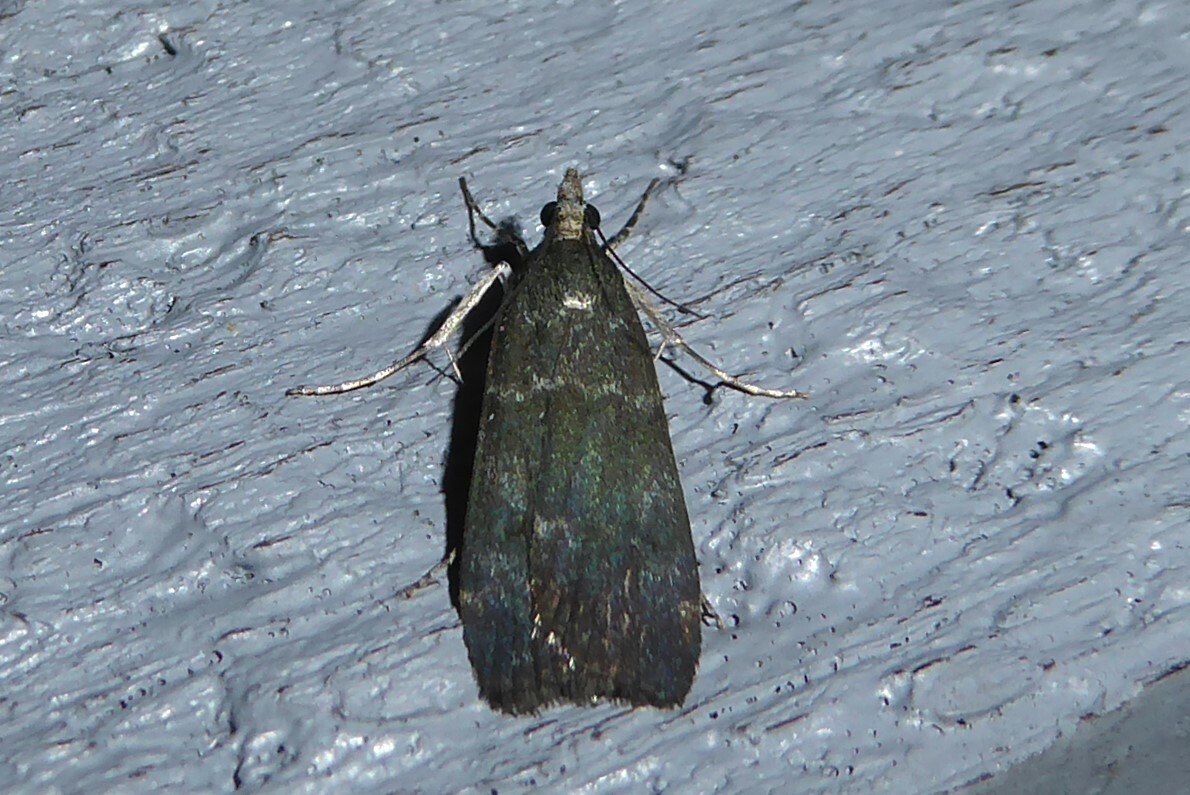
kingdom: Animalia
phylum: Arthropoda
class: Insecta
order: Lepidoptera
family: Crambidae
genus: Eudonia
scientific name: Eudonia cataxesta
